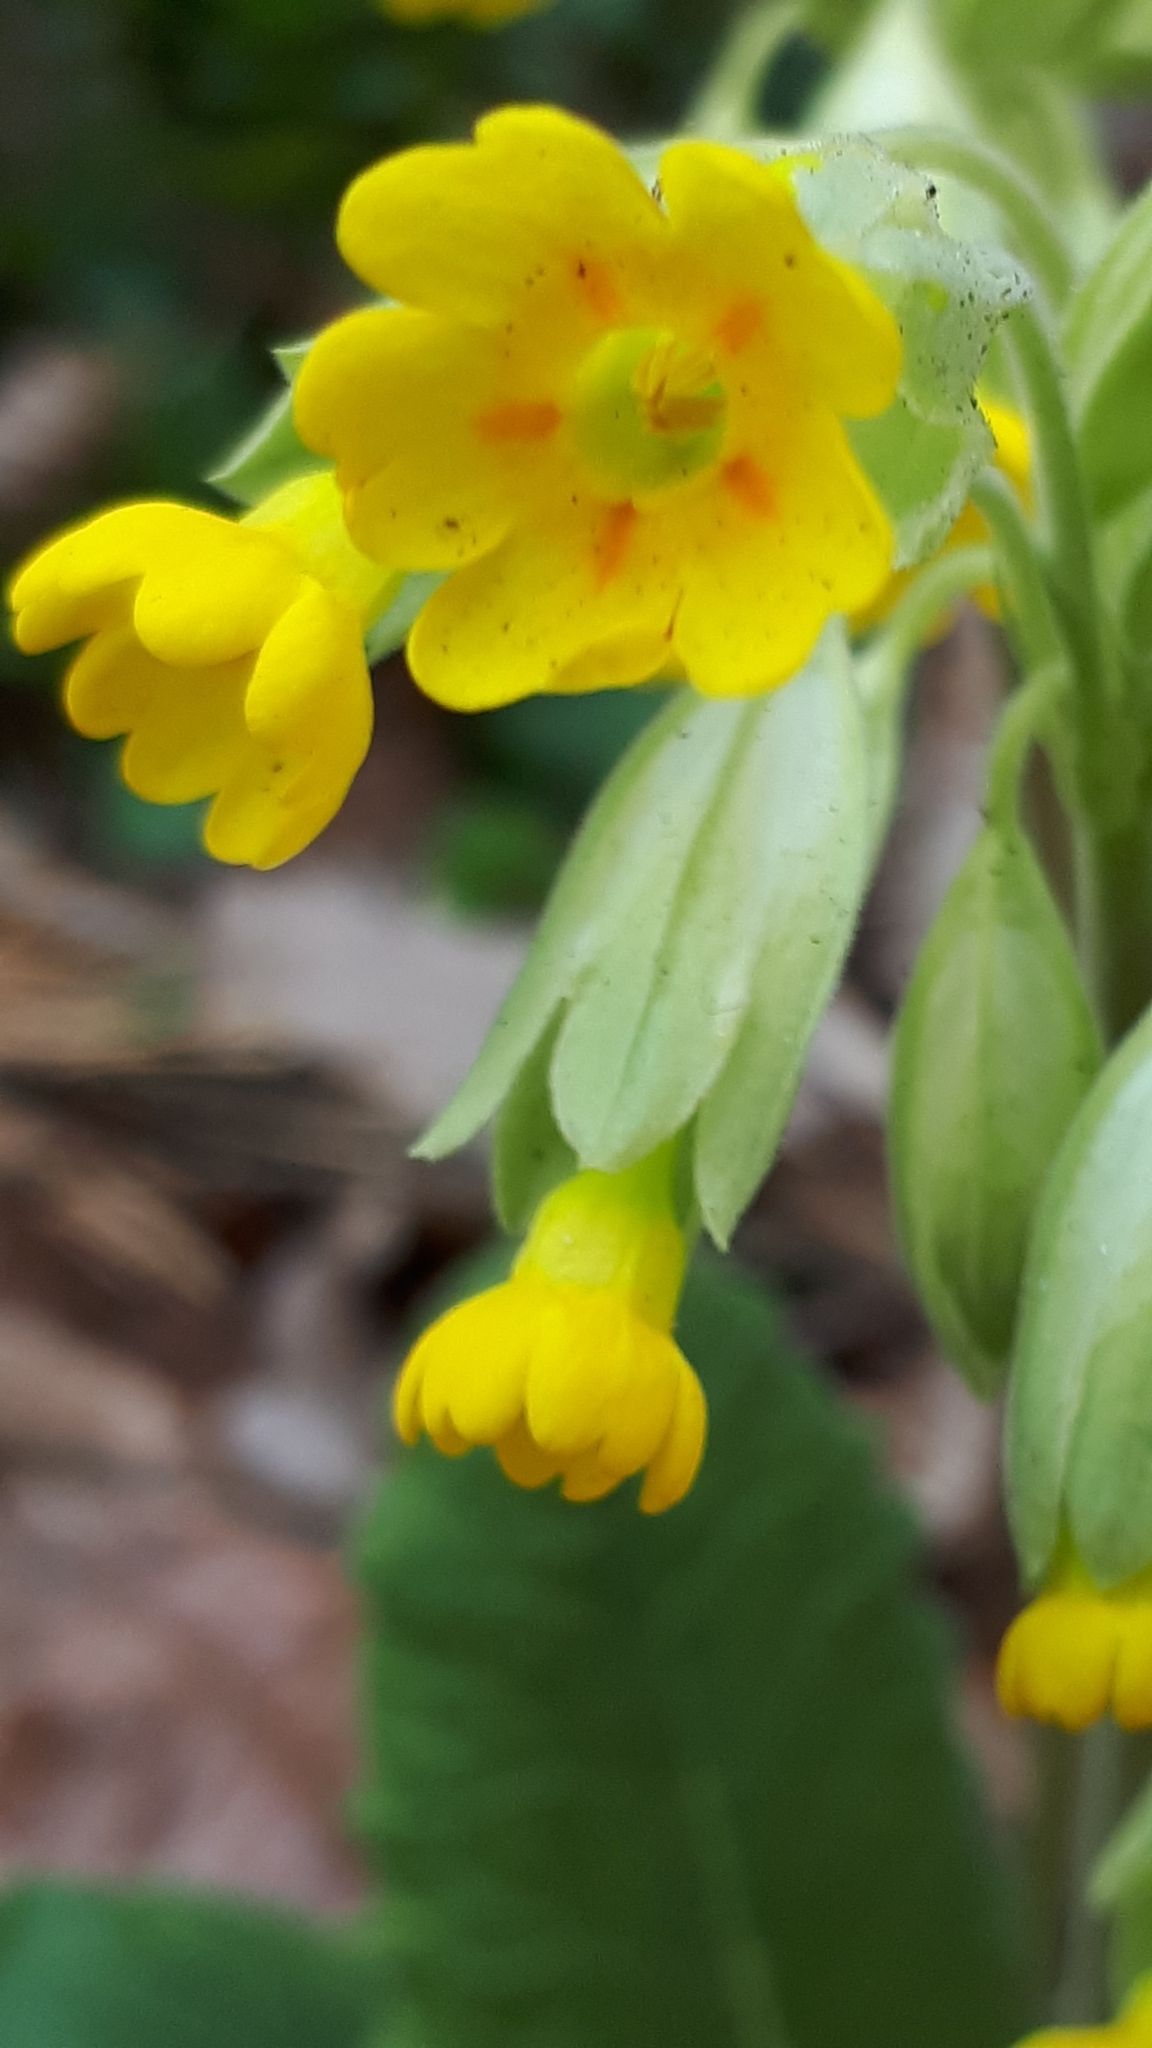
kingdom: Plantae
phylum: Tracheophyta
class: Magnoliopsida
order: Ericales
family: Primulaceae
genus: Primula
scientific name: Primula veris
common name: Cowslip
